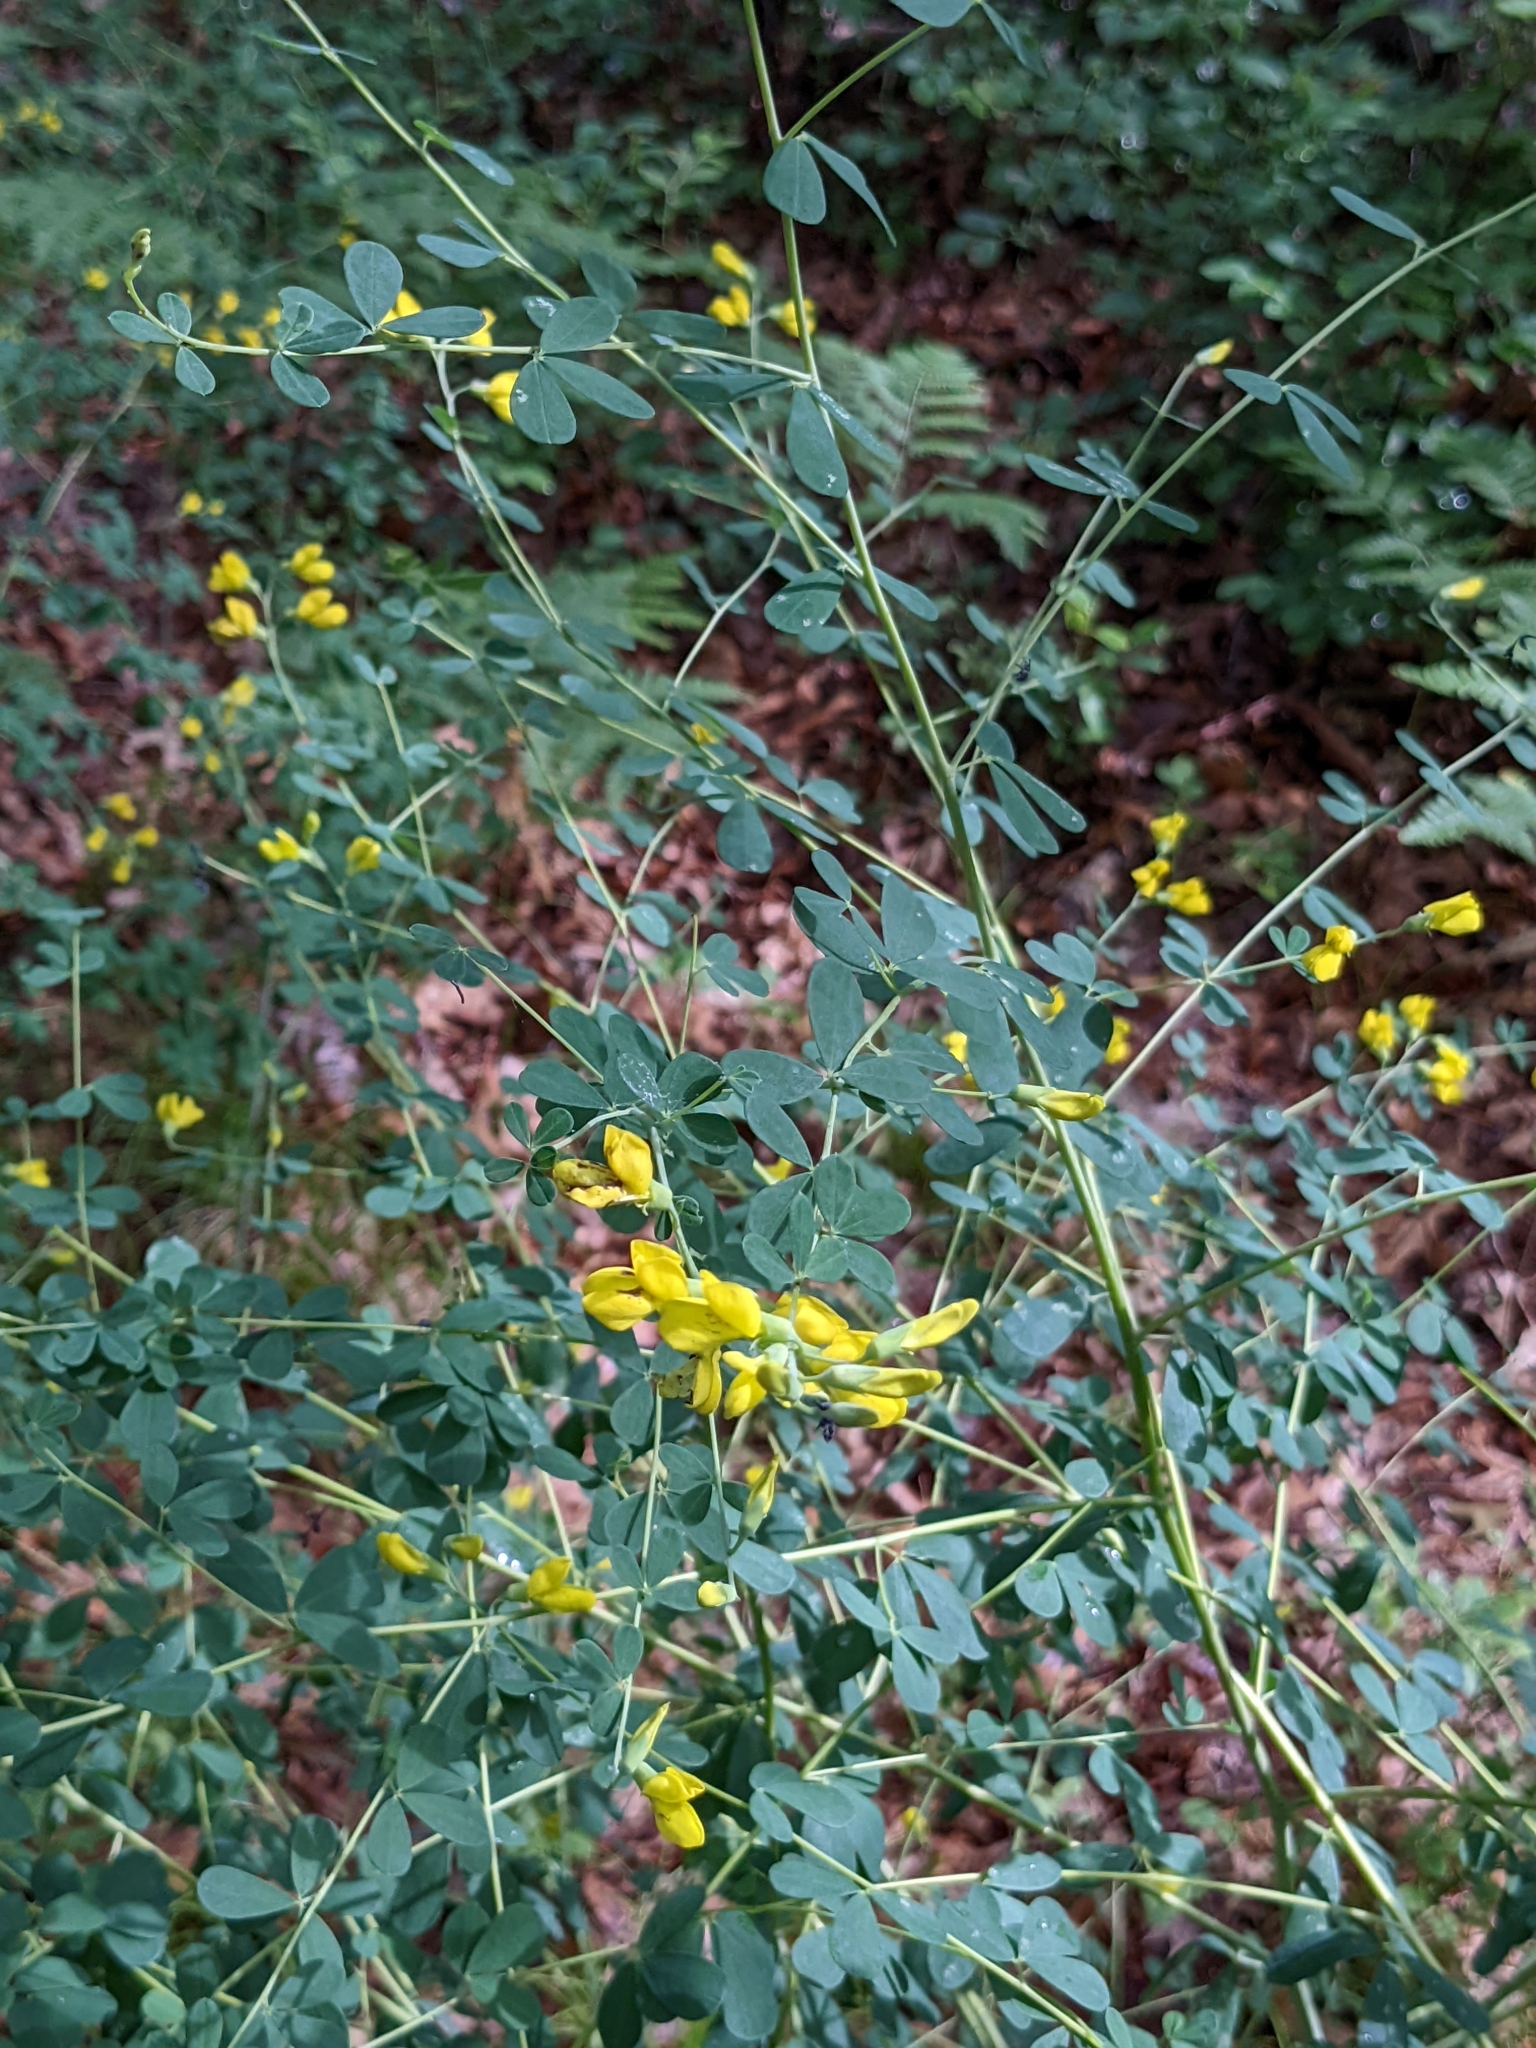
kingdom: Plantae
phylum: Tracheophyta
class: Magnoliopsida
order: Fabales
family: Fabaceae
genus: Baptisia
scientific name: Baptisia tinctoria
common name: Wild indigo
